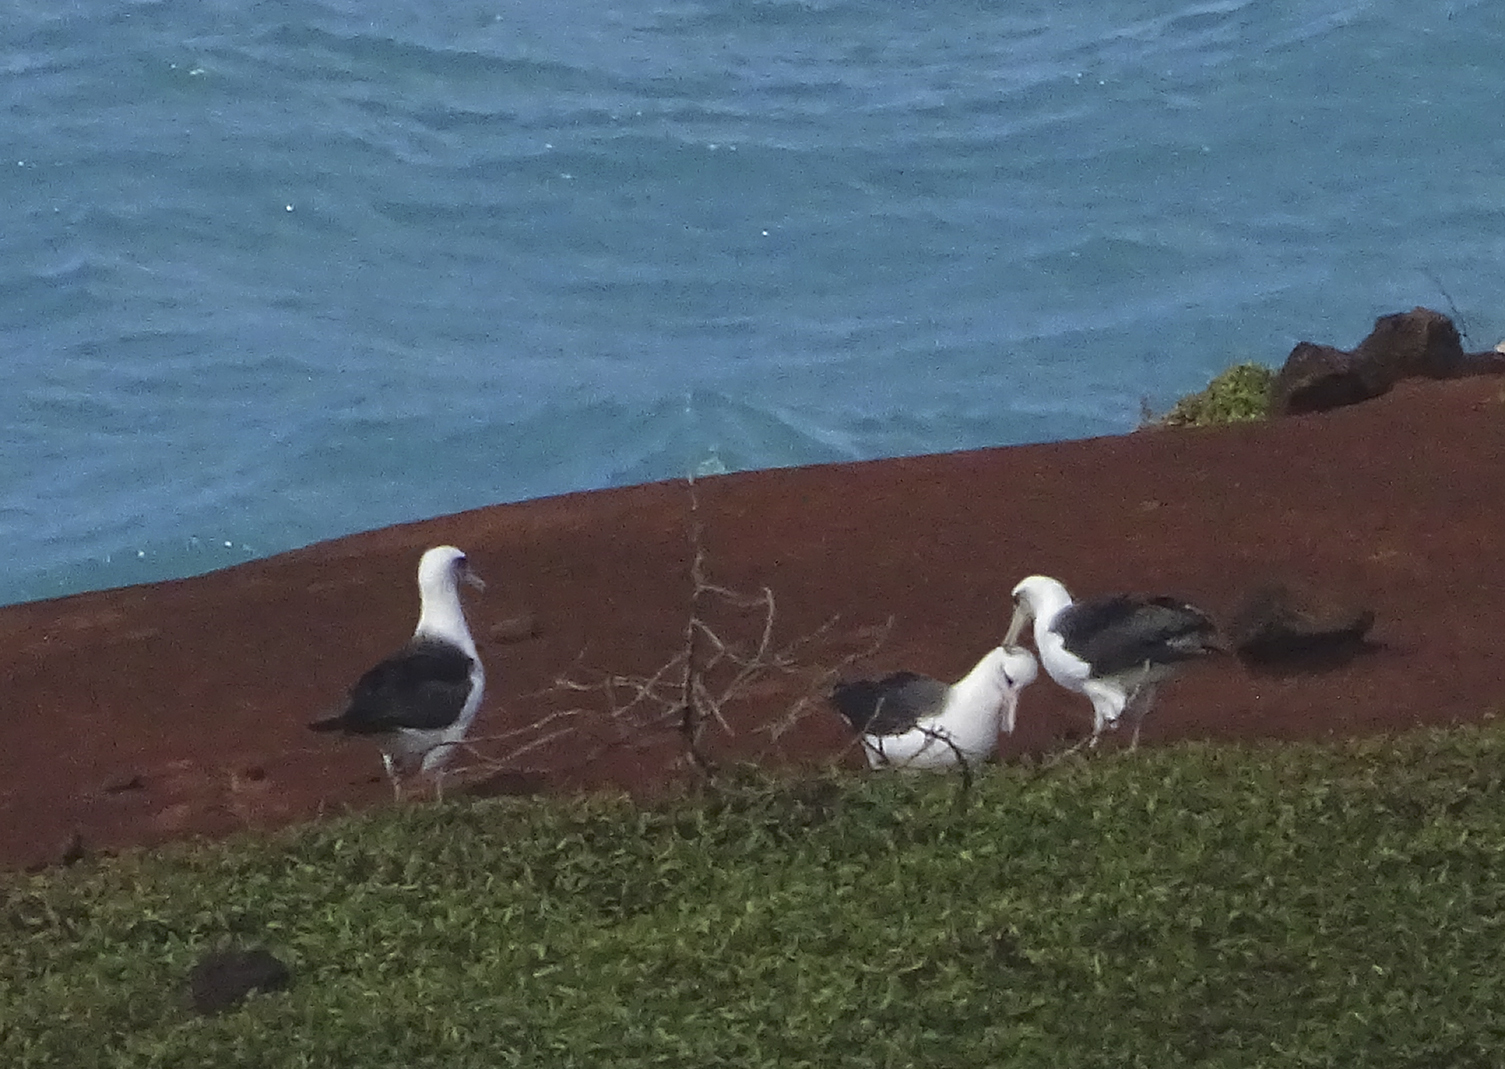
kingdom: Animalia
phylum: Chordata
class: Aves
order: Procellariiformes
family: Diomedeidae
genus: Phoebastria
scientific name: Phoebastria immutabilis
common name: Laysan albatross
